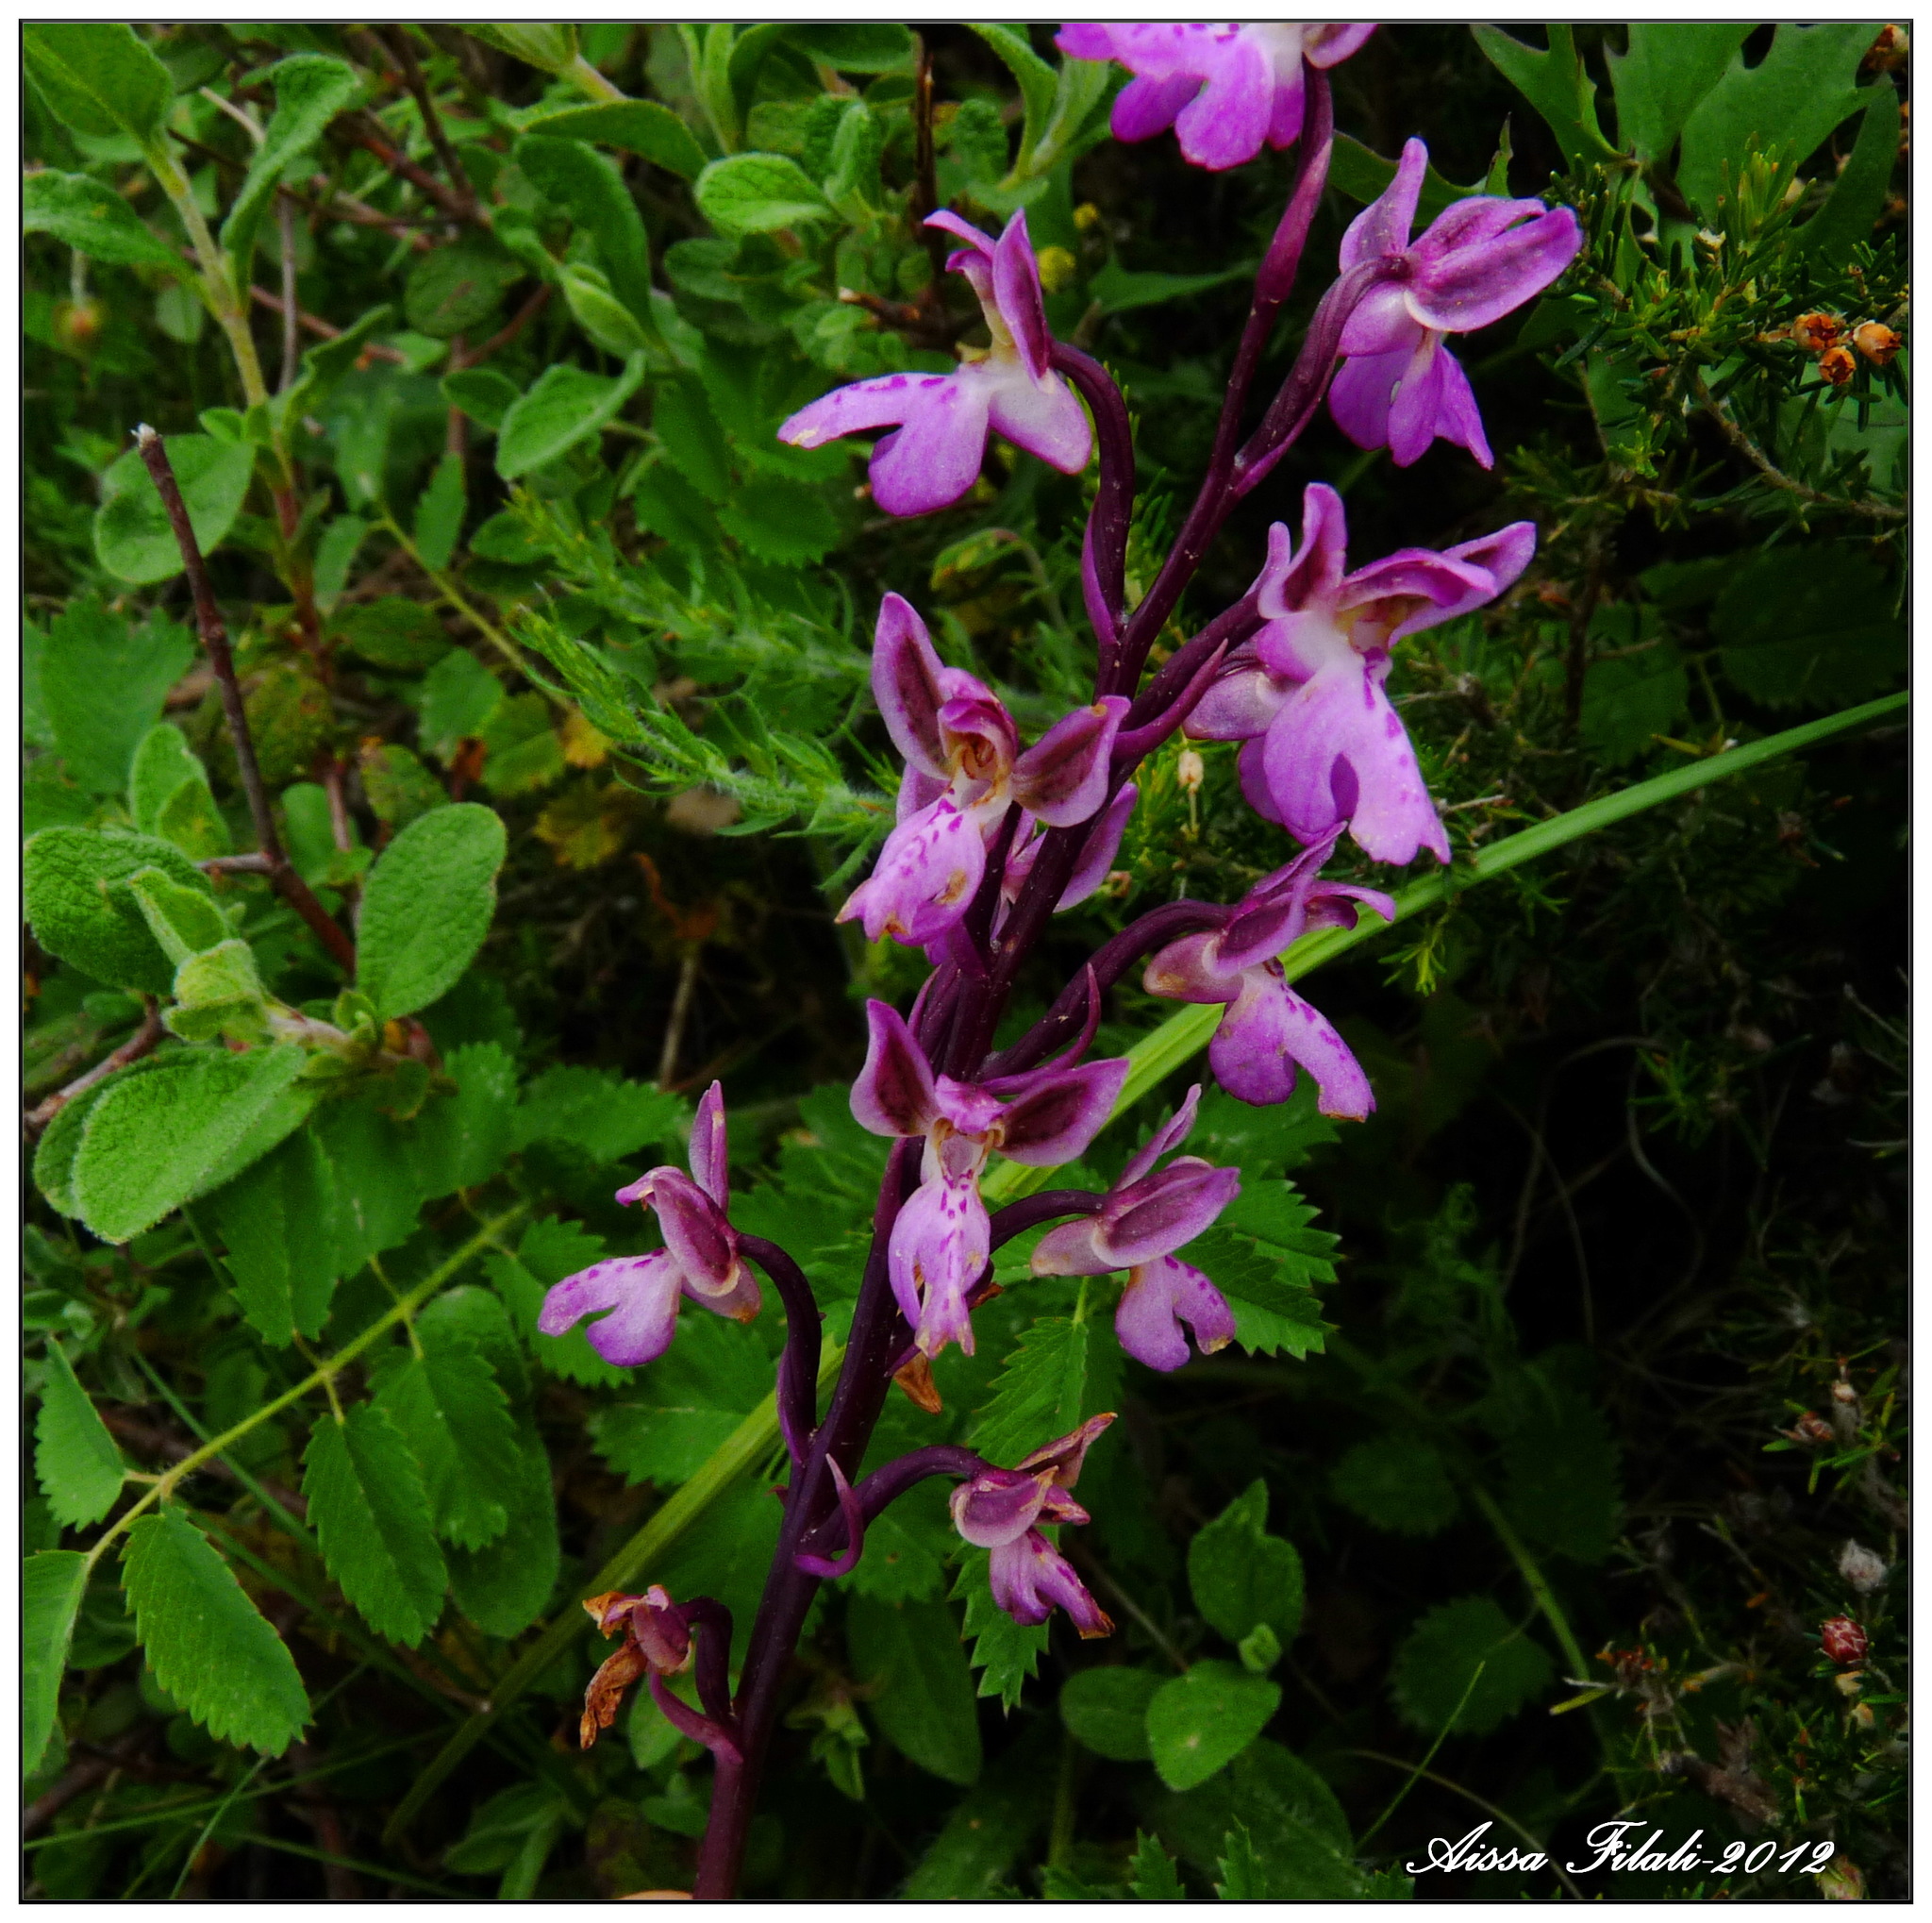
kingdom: Plantae
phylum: Tracheophyta
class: Liliopsida
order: Asparagales
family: Orchidaceae
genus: Orchis
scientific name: Orchis patens
